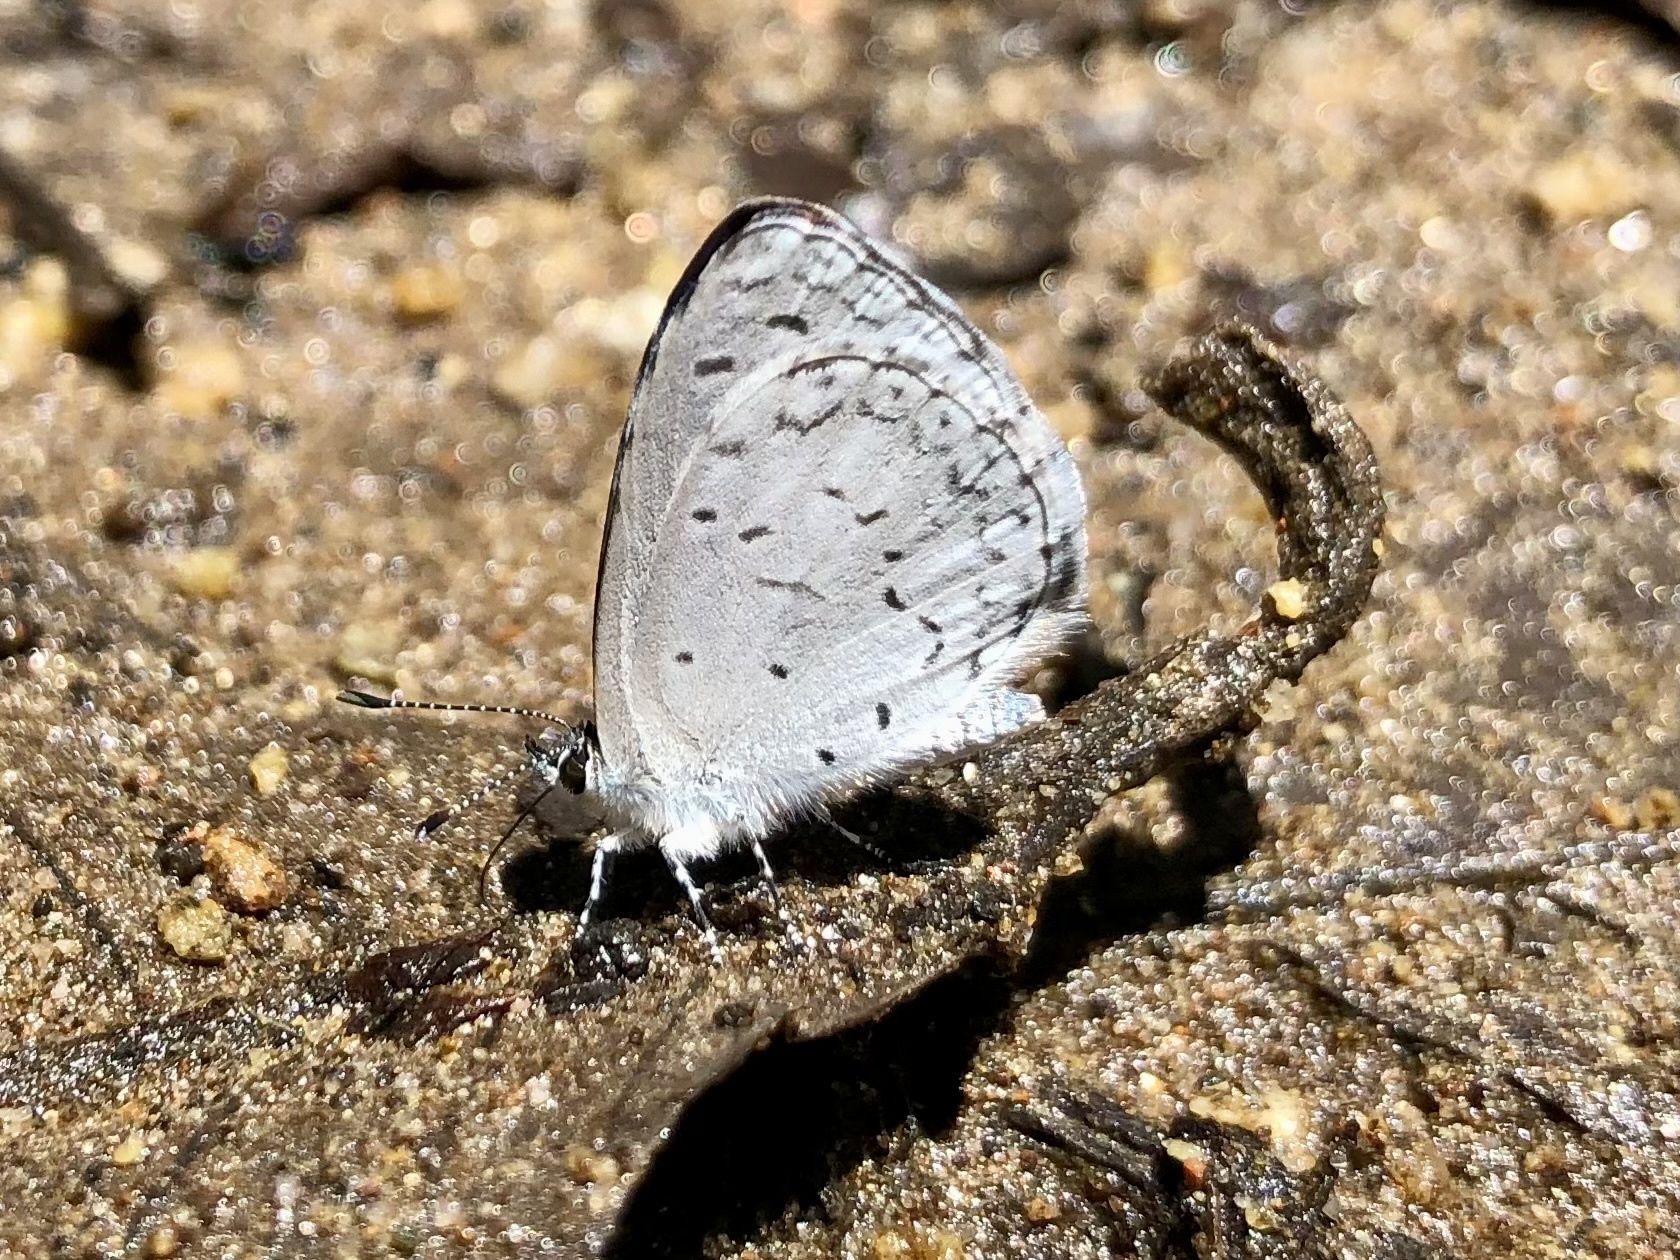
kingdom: Animalia
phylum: Arthropoda
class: Insecta
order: Lepidoptera
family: Lycaenidae
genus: Celastrina
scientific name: Celastrina ladon
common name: Spring azure
